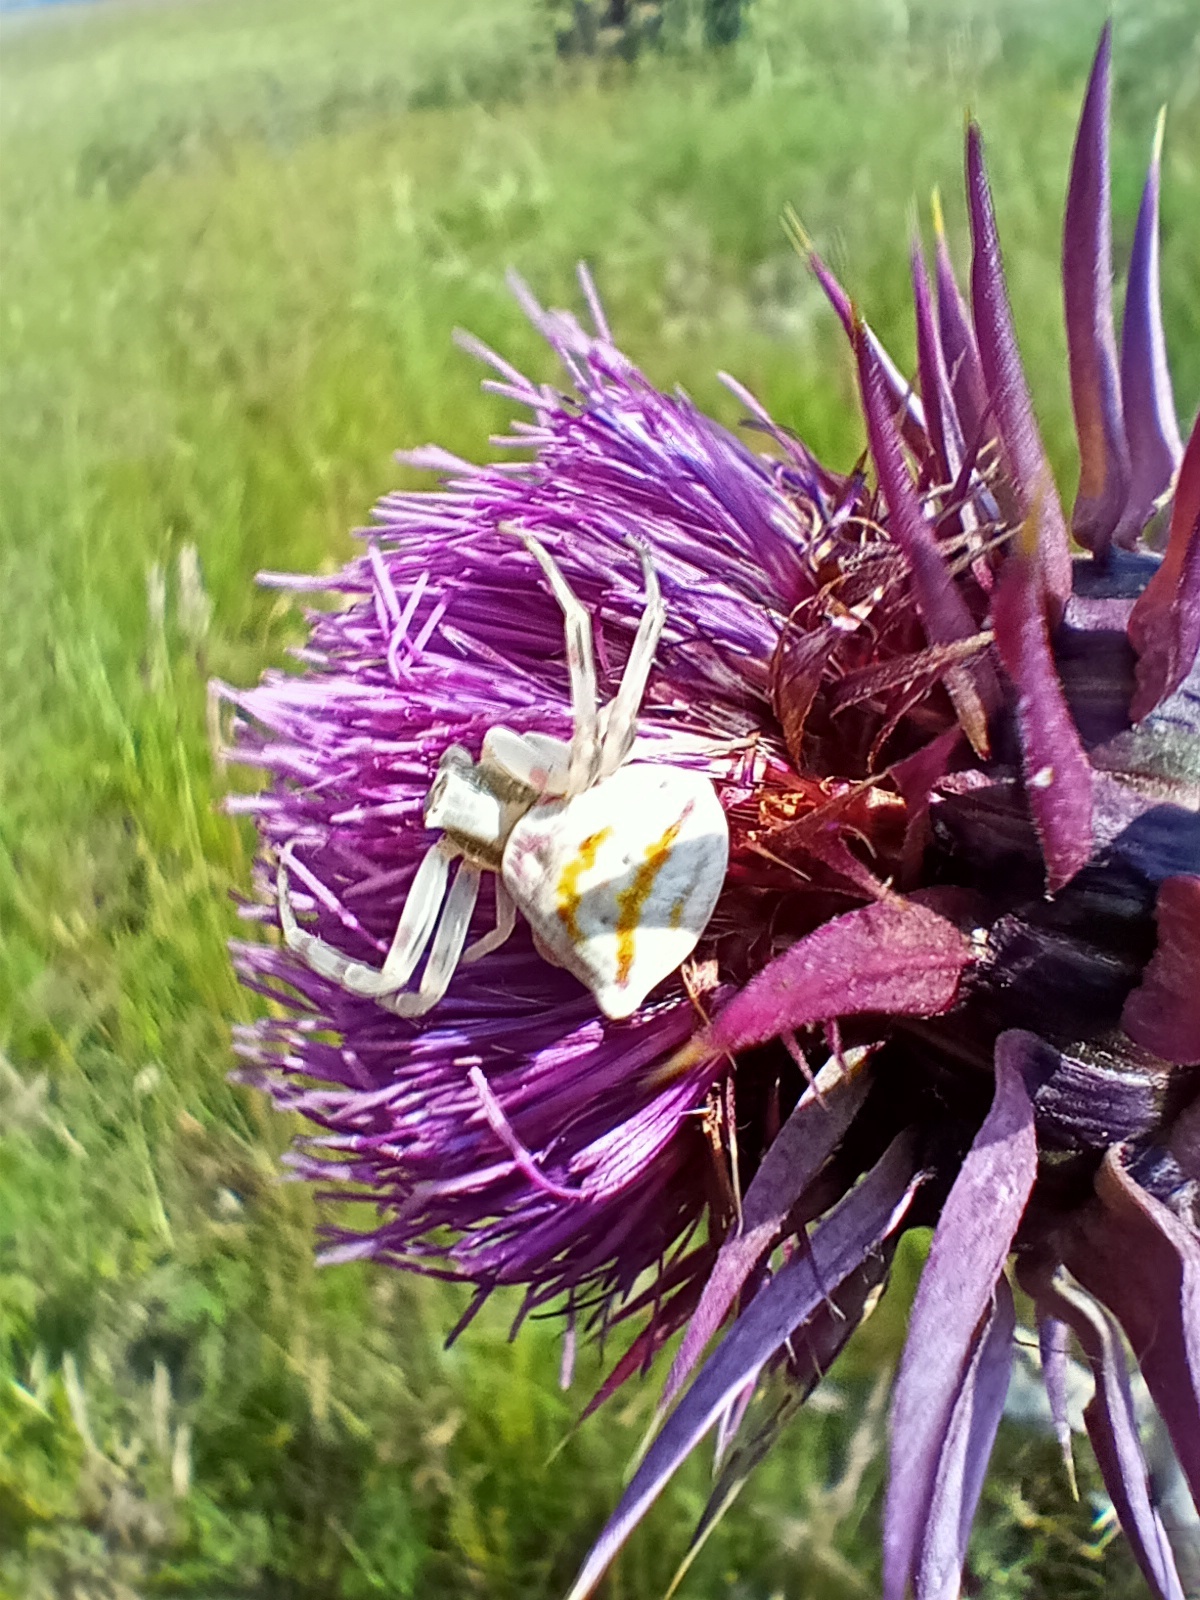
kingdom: Animalia
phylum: Arthropoda
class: Arachnida
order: Araneae
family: Thomisidae
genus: Thomisus
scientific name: Thomisus onustus
